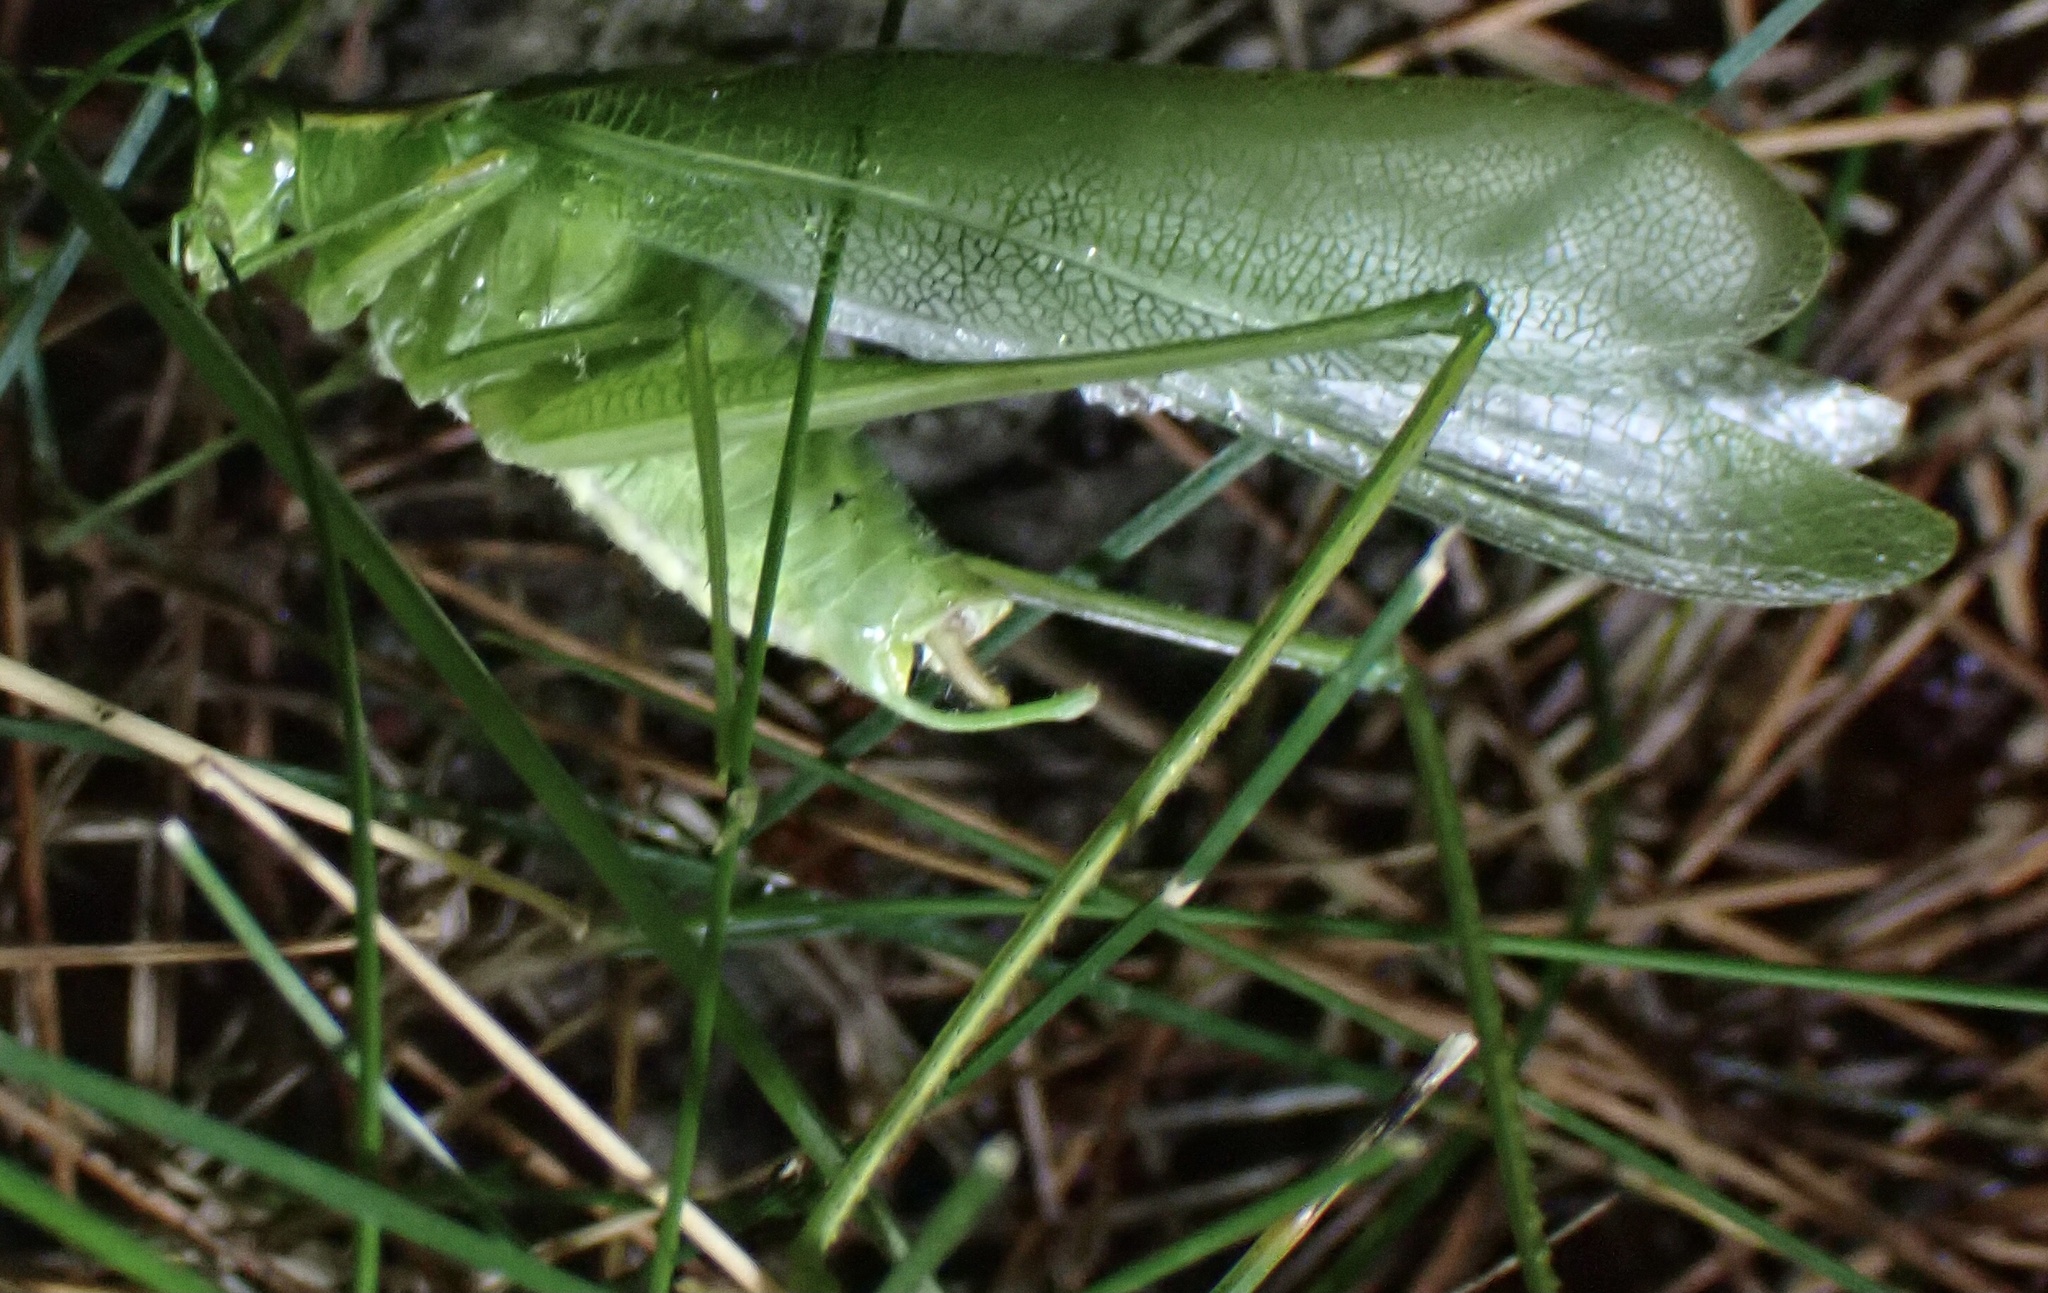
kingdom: Animalia
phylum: Arthropoda
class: Insecta
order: Orthoptera
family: Tettigoniidae
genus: Scudderia
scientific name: Scudderia septentrionalis
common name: Northern bush-katydid
